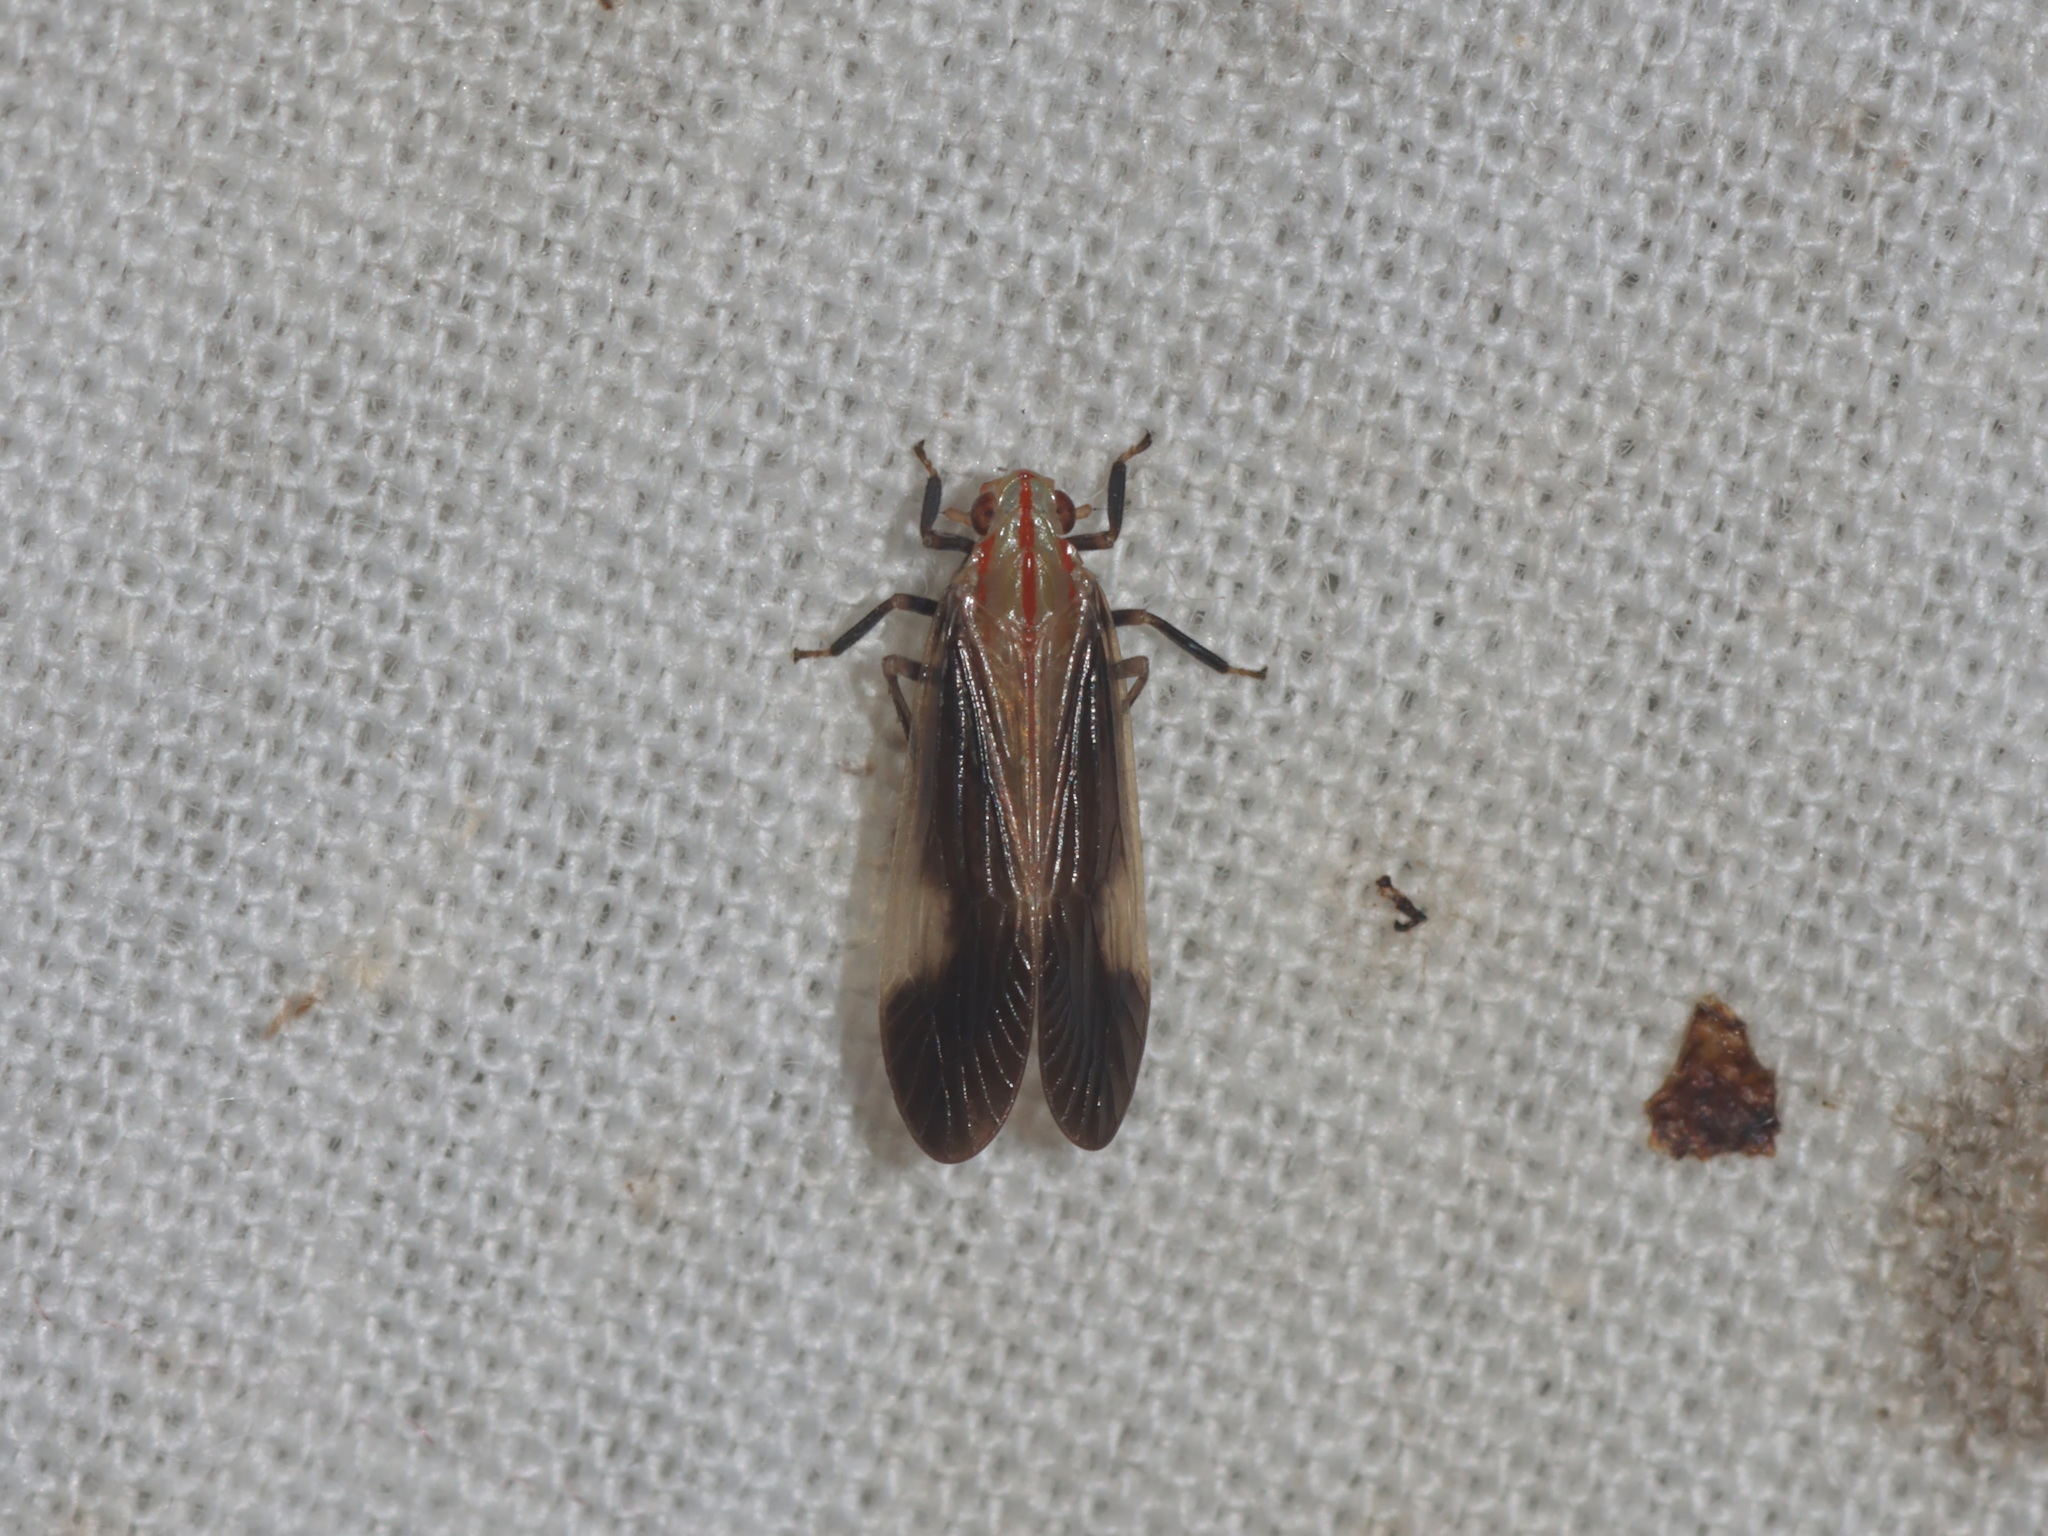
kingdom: Animalia
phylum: Arthropoda
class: Insecta
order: Hemiptera
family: Tropiduchidae
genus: Catullioides
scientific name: Catullioides rubrolineata
